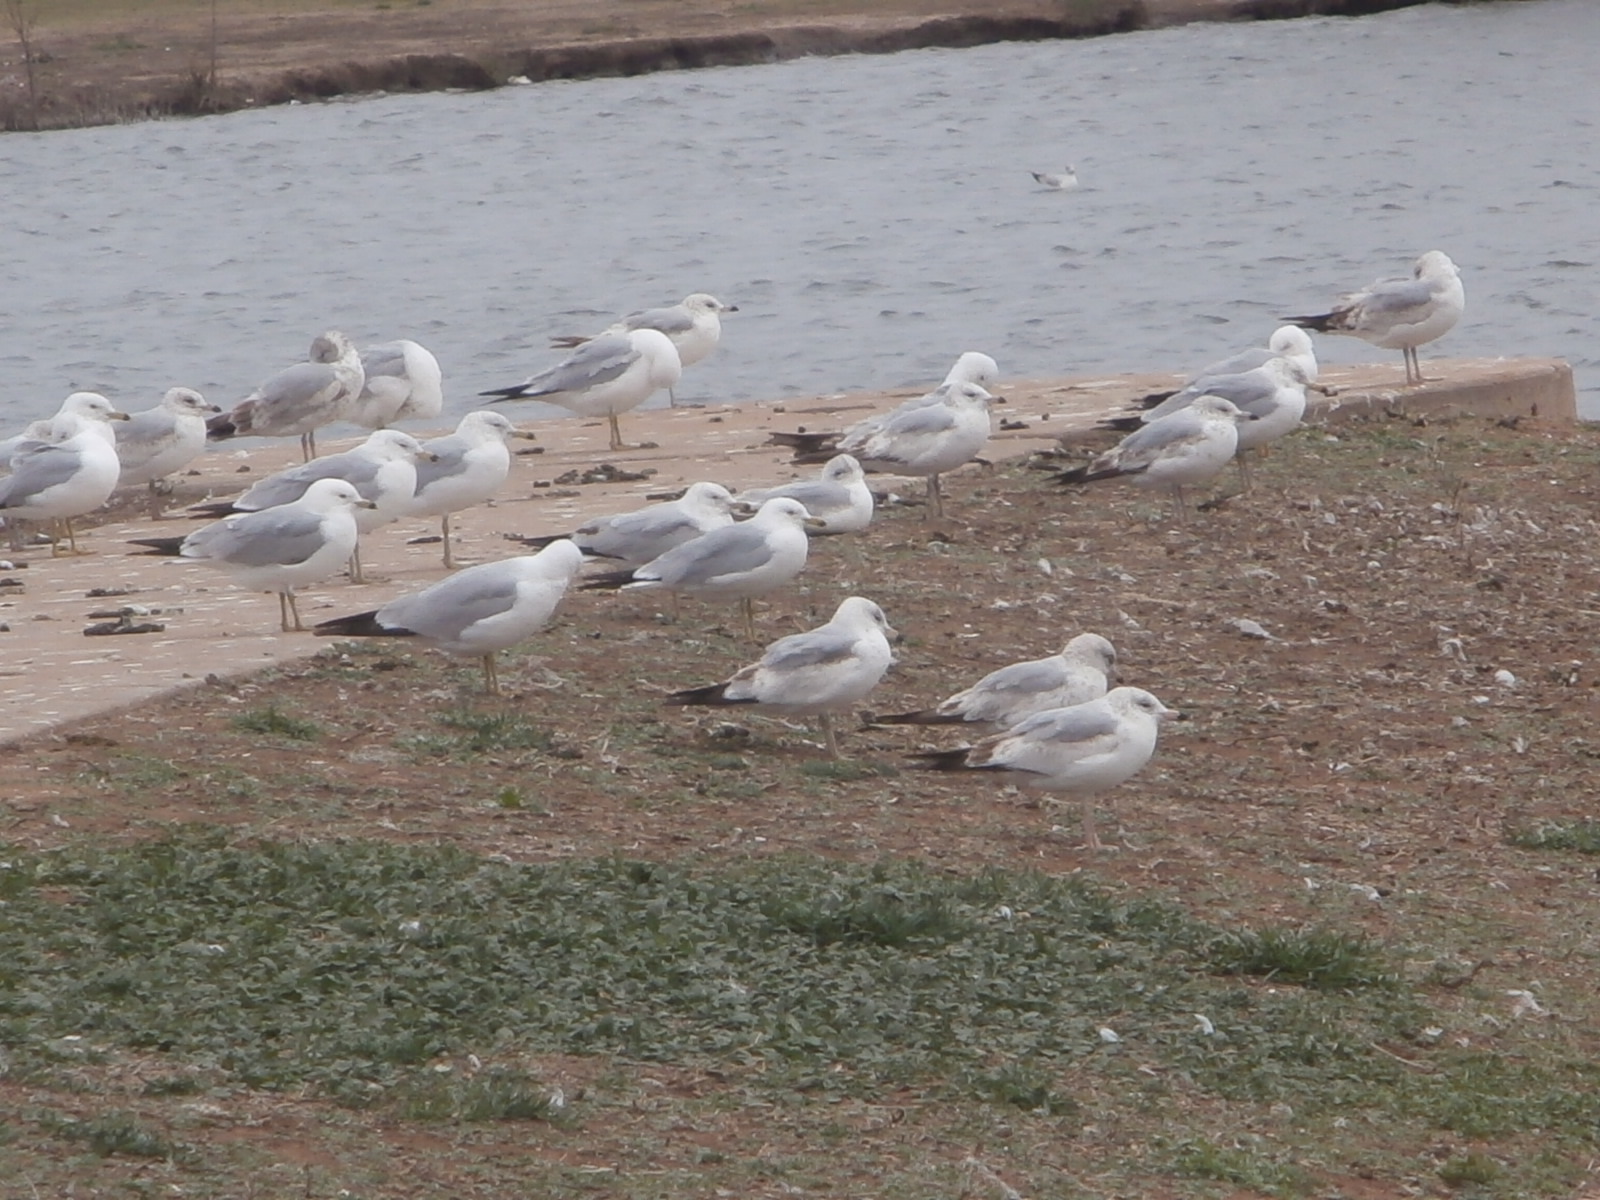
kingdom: Animalia
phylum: Chordata
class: Aves
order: Charadriiformes
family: Laridae
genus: Larus
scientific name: Larus delawarensis
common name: Ring-billed gull
